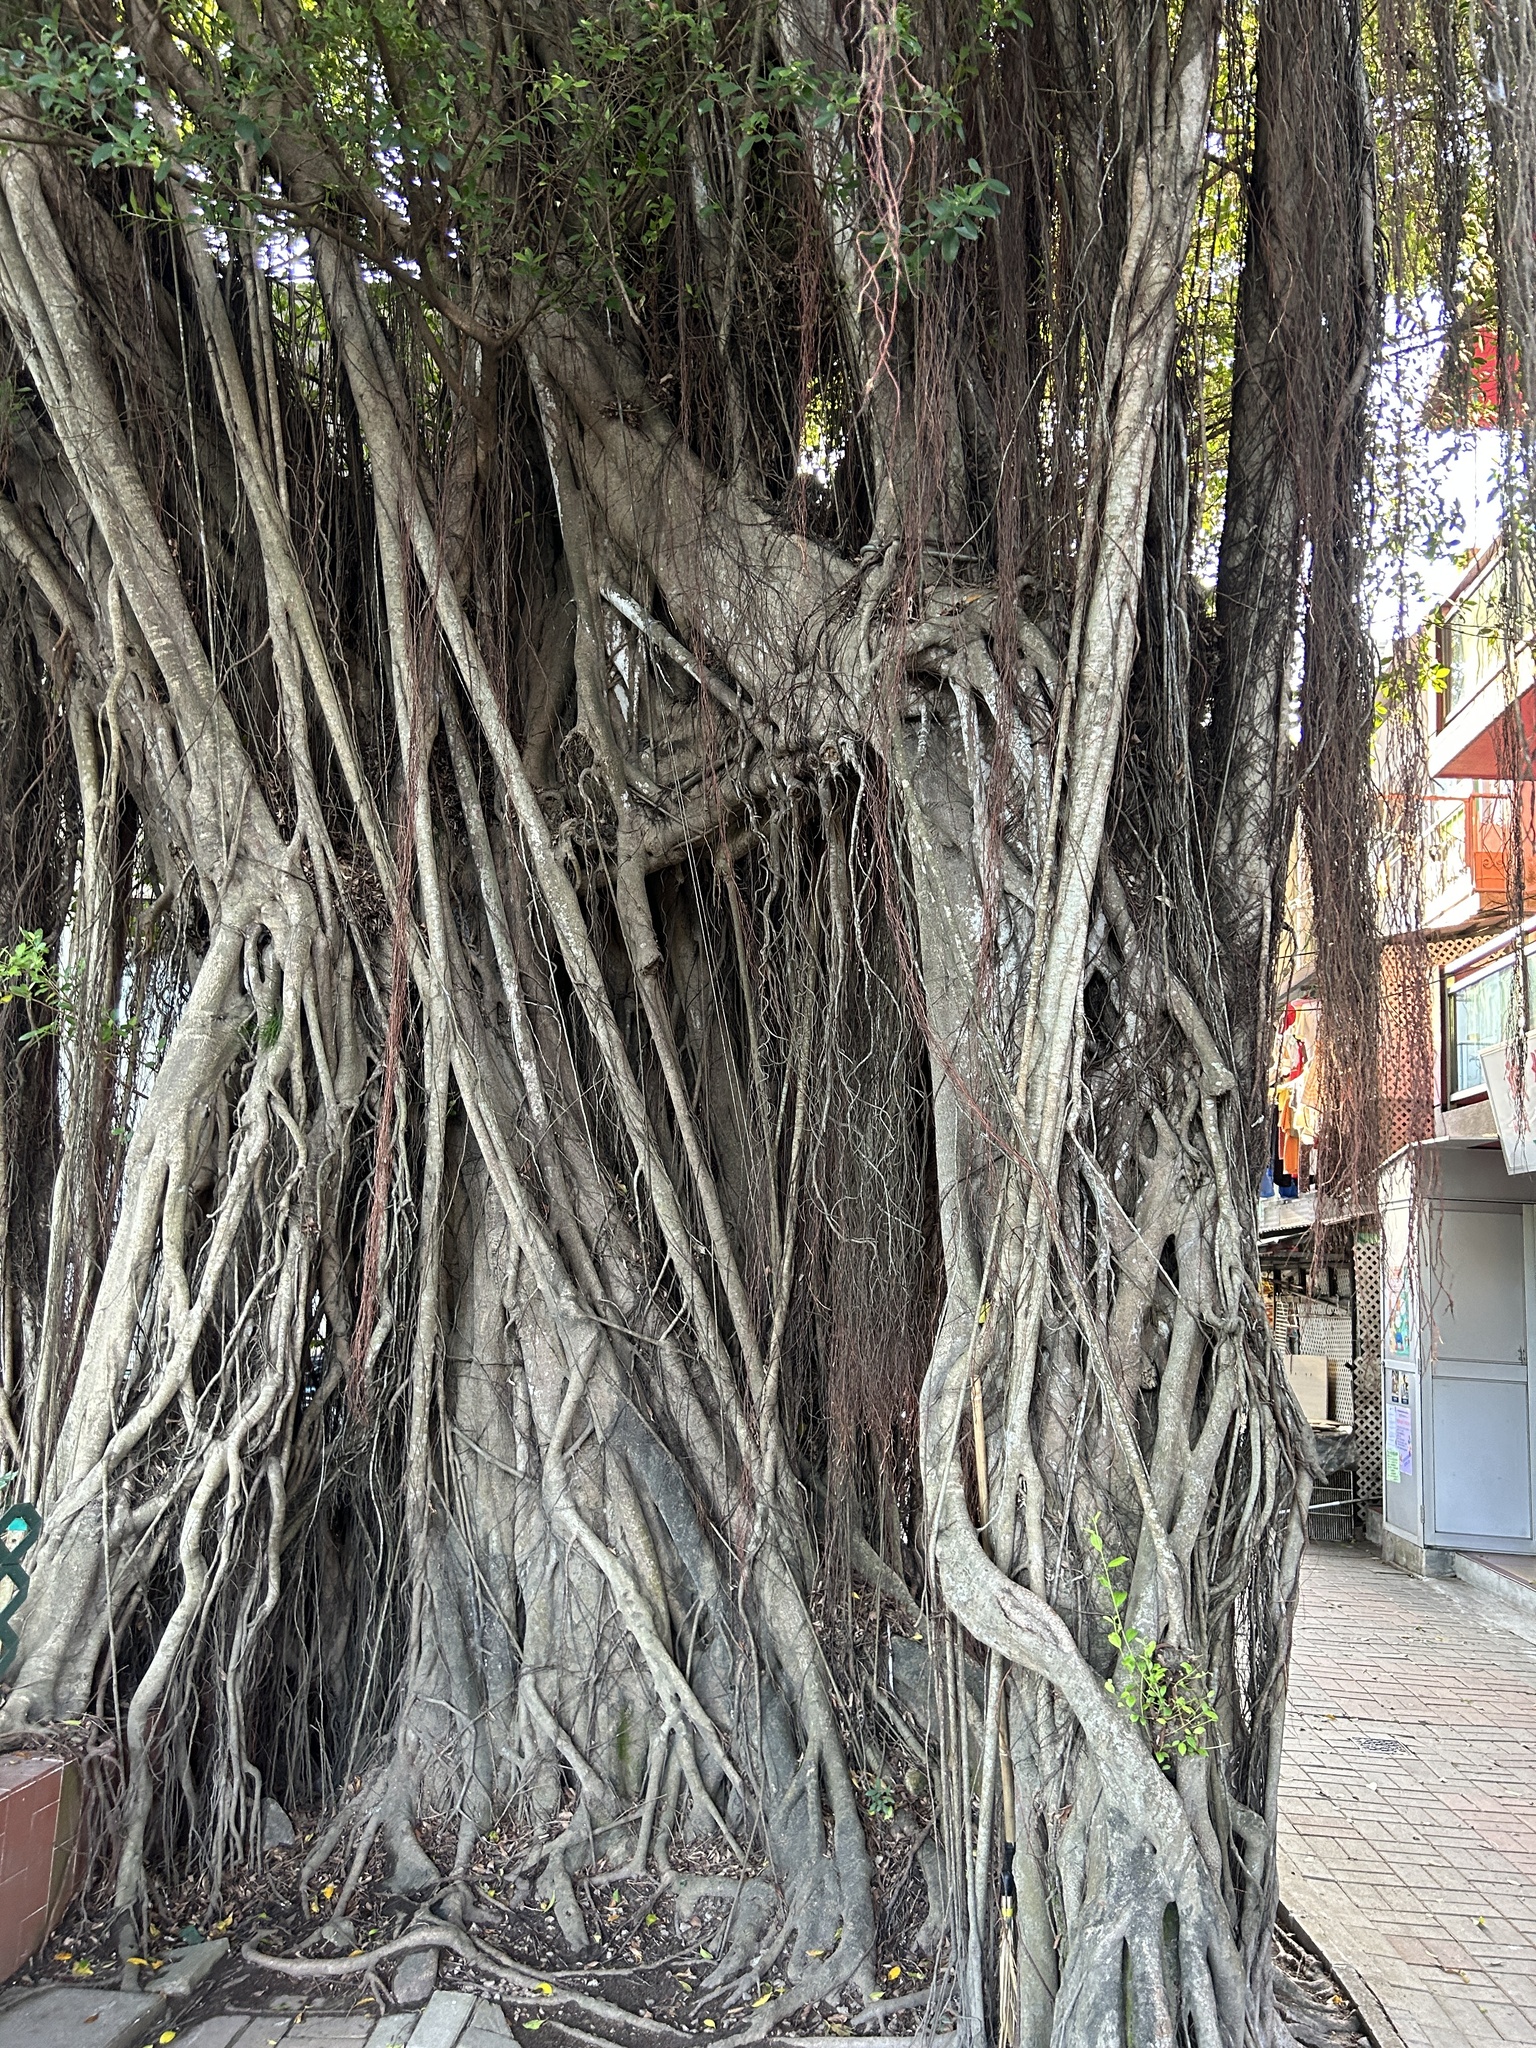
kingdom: Plantae
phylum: Tracheophyta
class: Magnoliopsida
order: Rosales
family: Moraceae
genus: Ficus
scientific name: Ficus microcarpa
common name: Chinese banyan
